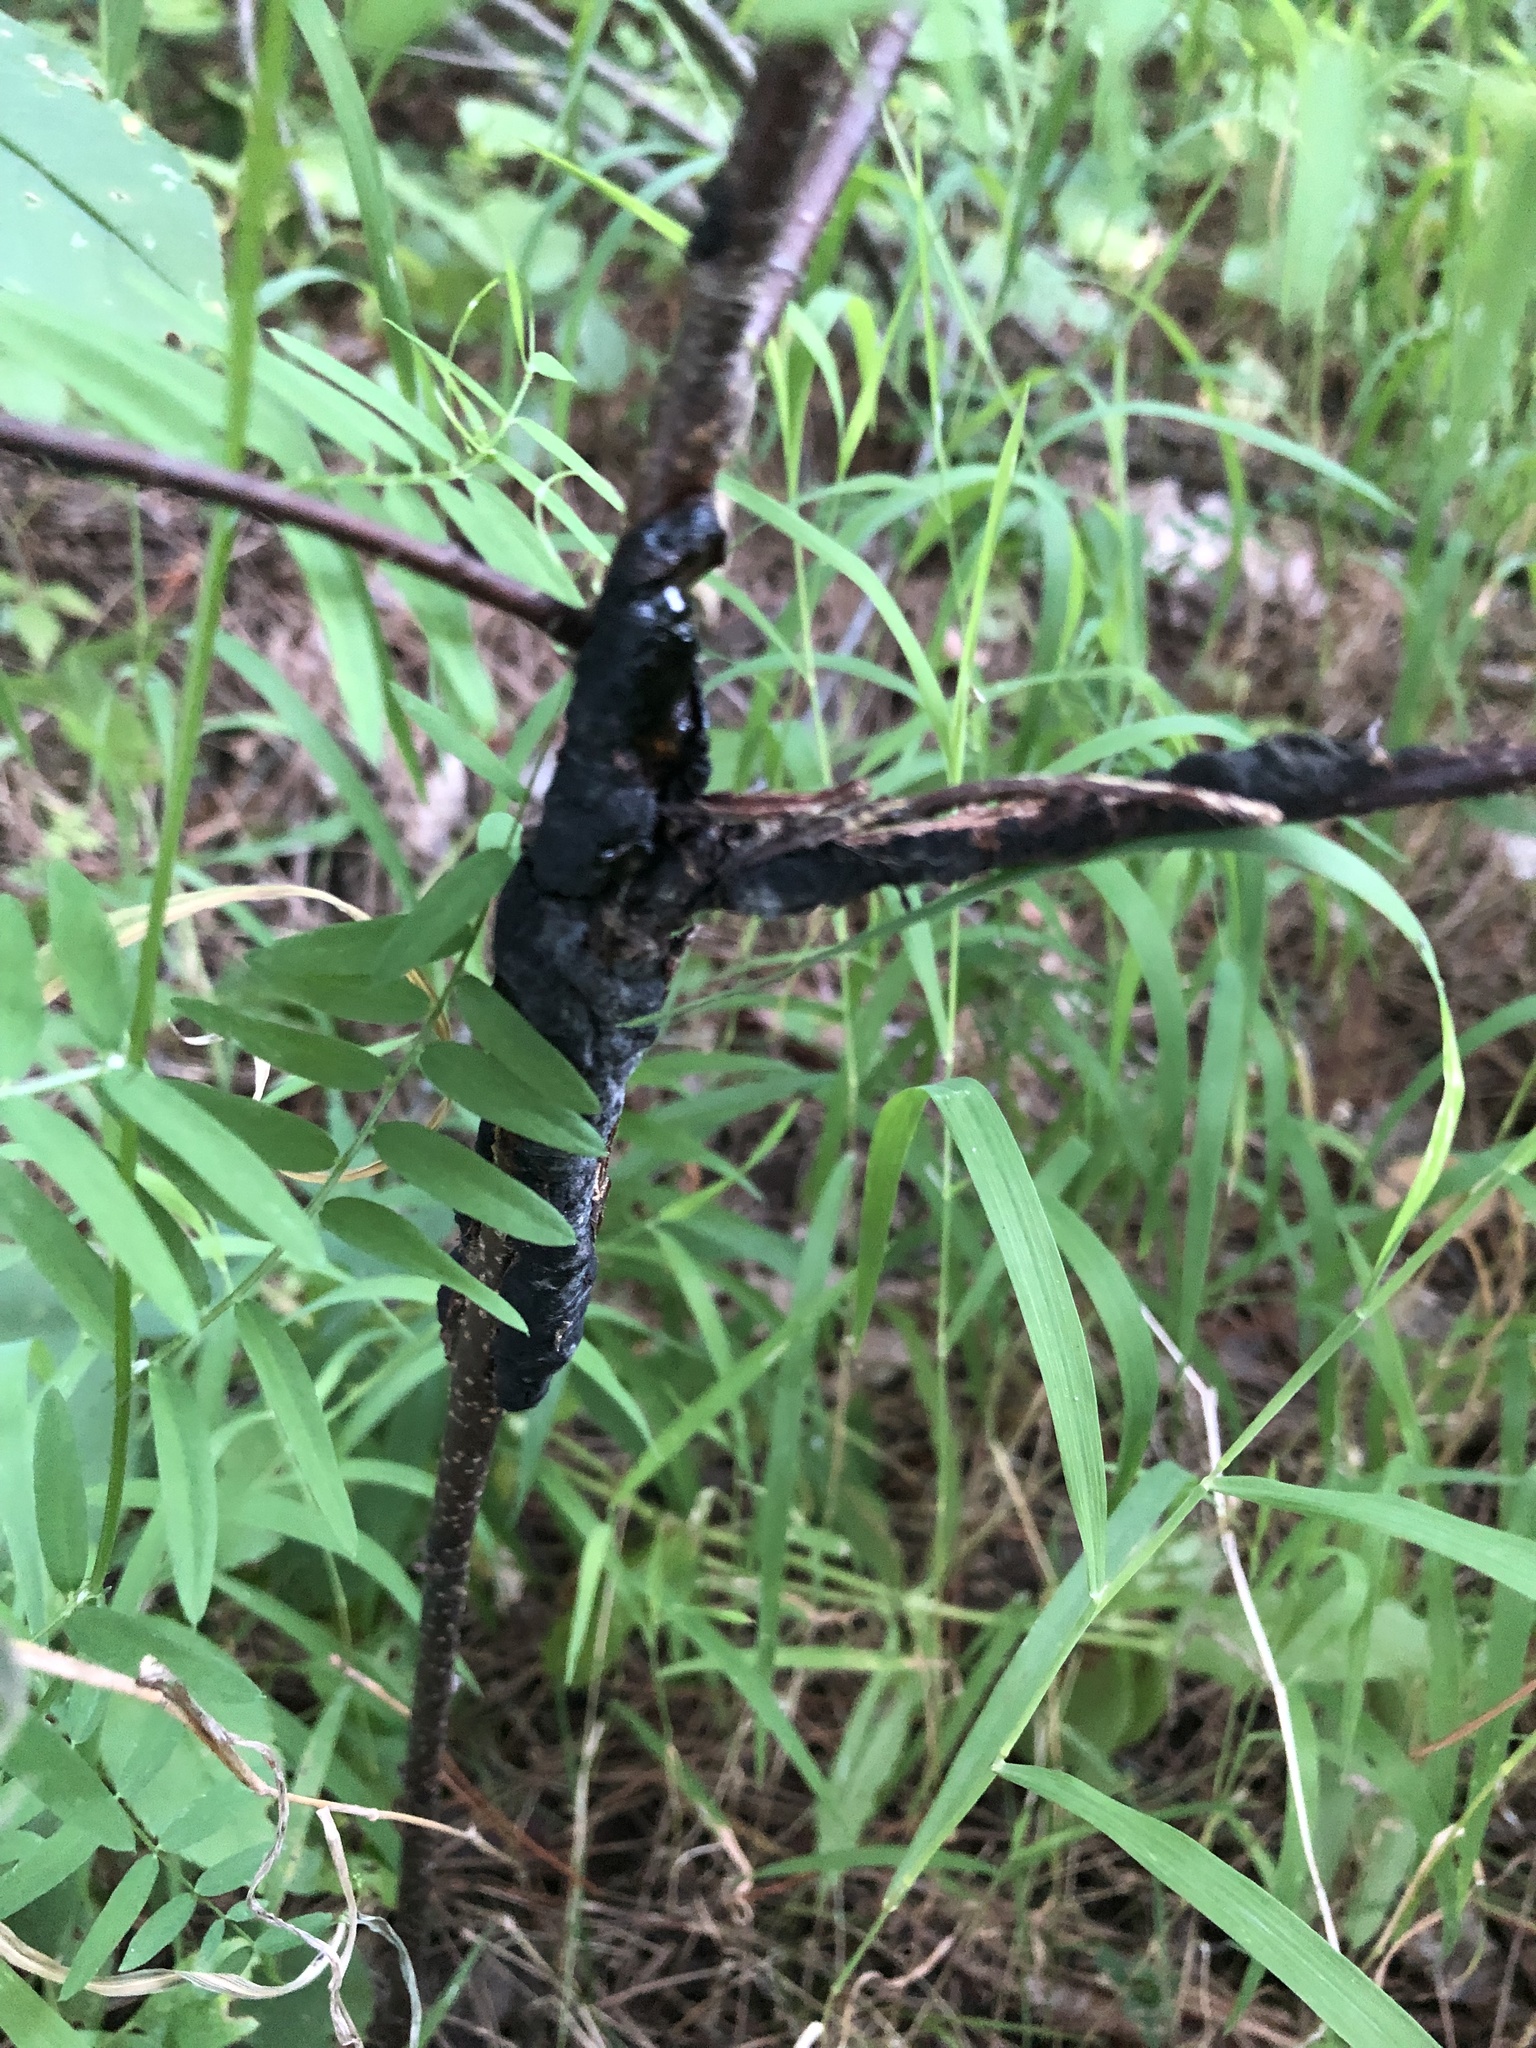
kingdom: Fungi
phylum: Ascomycota
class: Dothideomycetes
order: Venturiales
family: Venturiaceae
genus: Apiosporina
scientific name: Apiosporina morbosa
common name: Black knot
